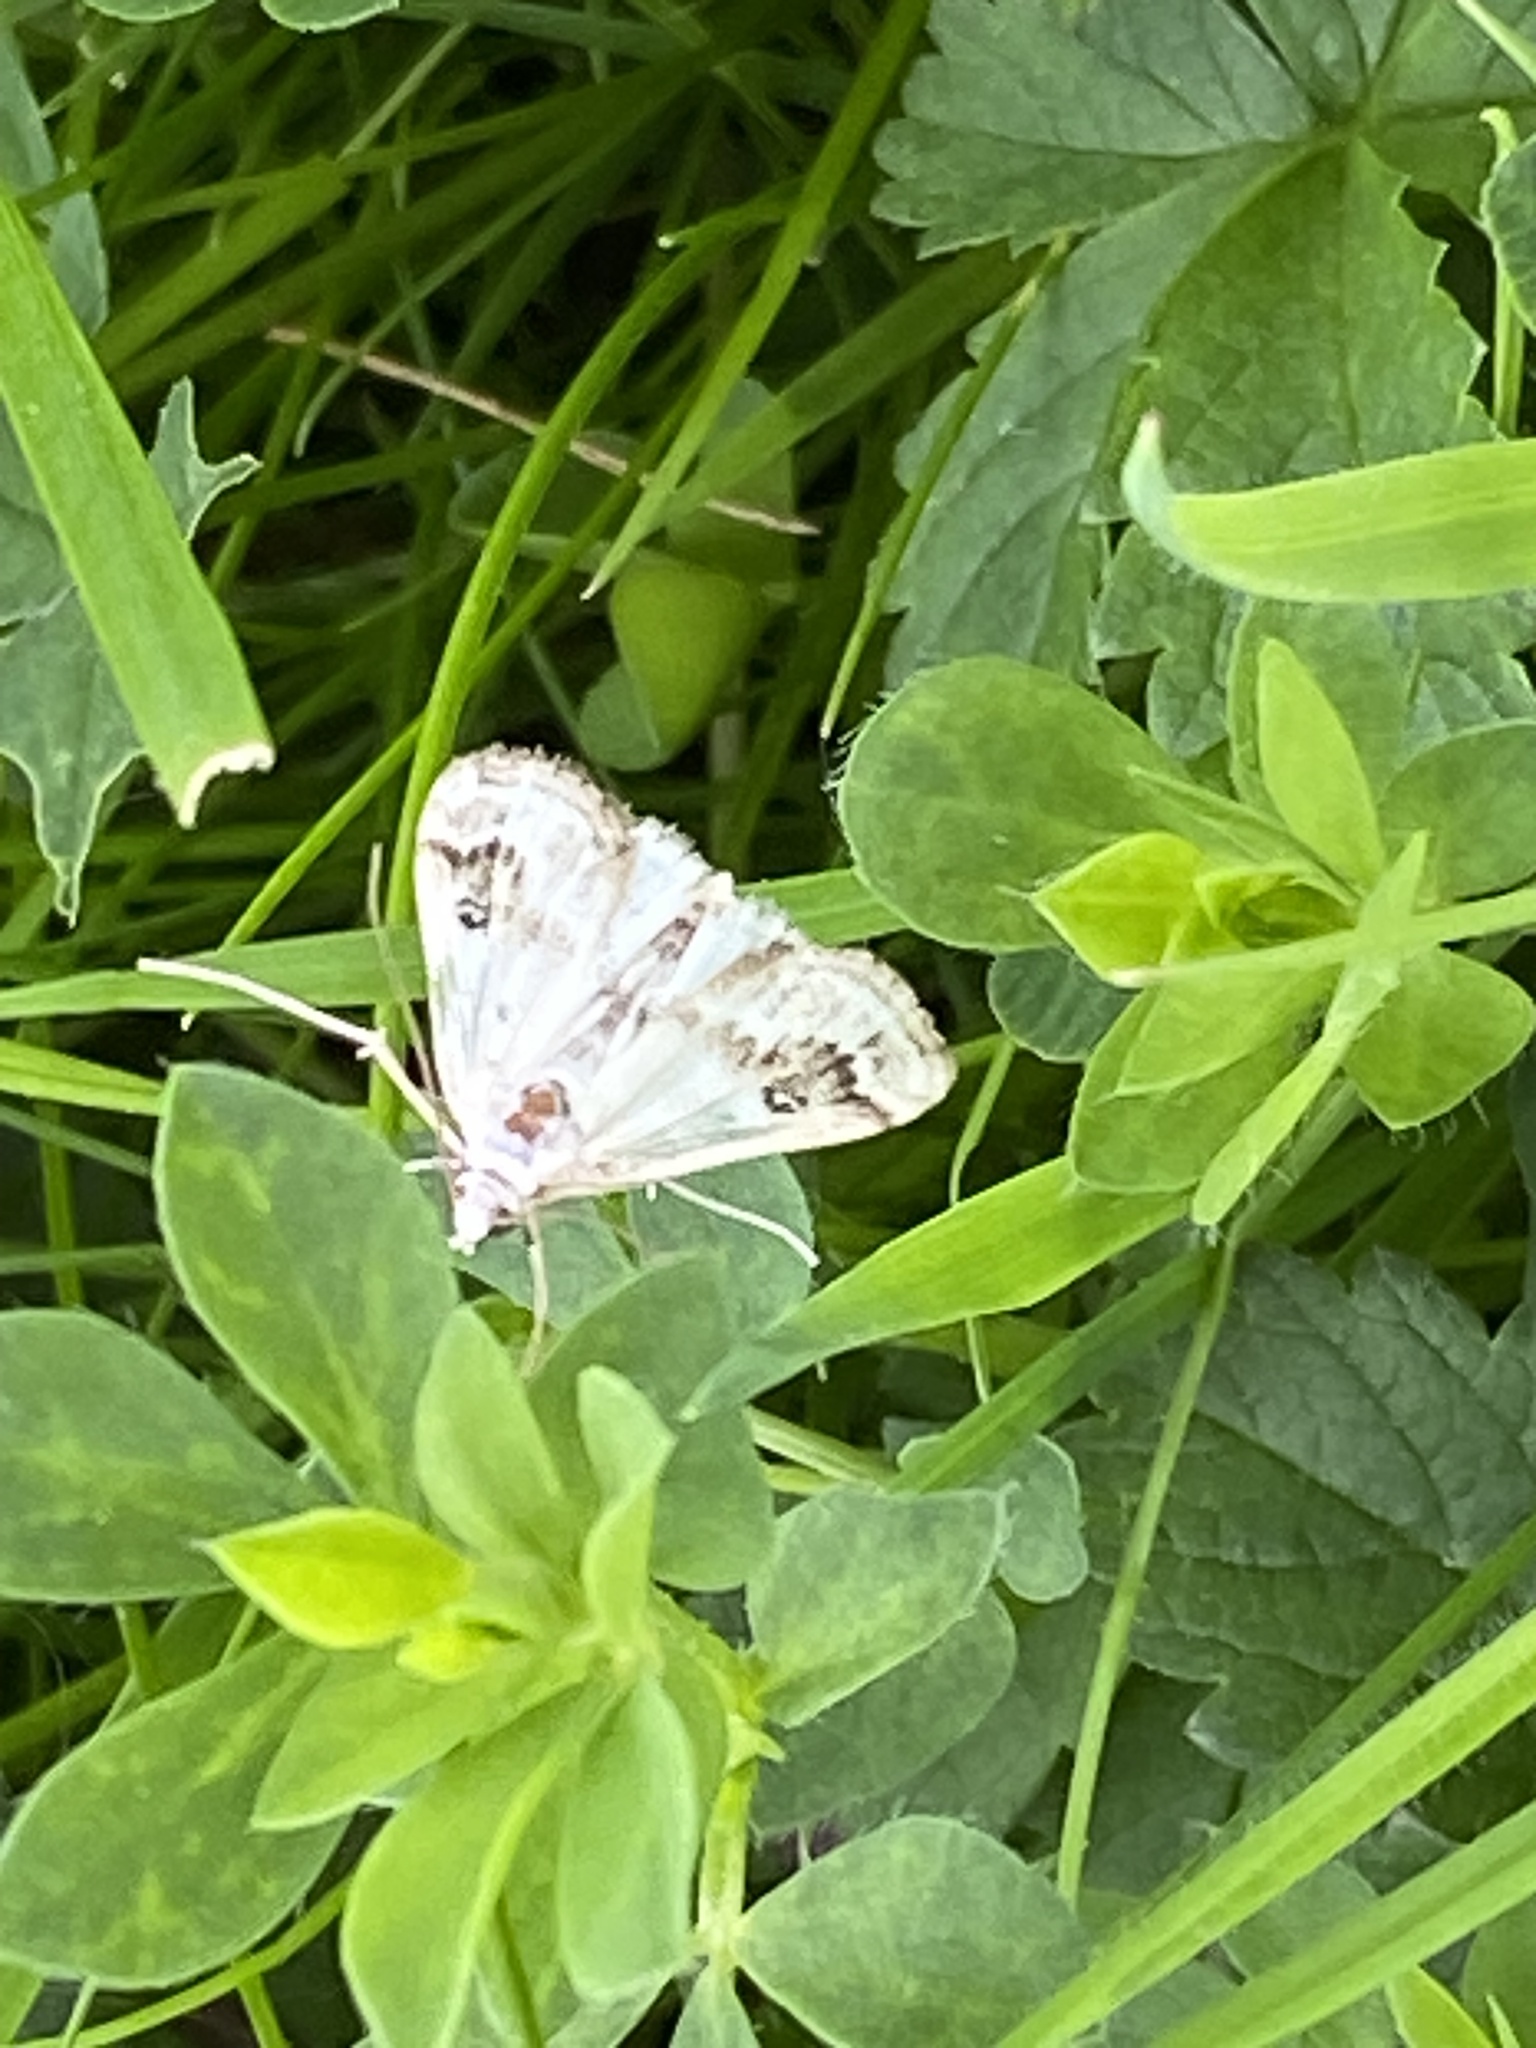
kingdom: Animalia
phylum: Arthropoda
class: Insecta
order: Lepidoptera
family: Crambidae
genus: Parapoynx
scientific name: Parapoynx stratiotata
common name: Ringed china-mark
